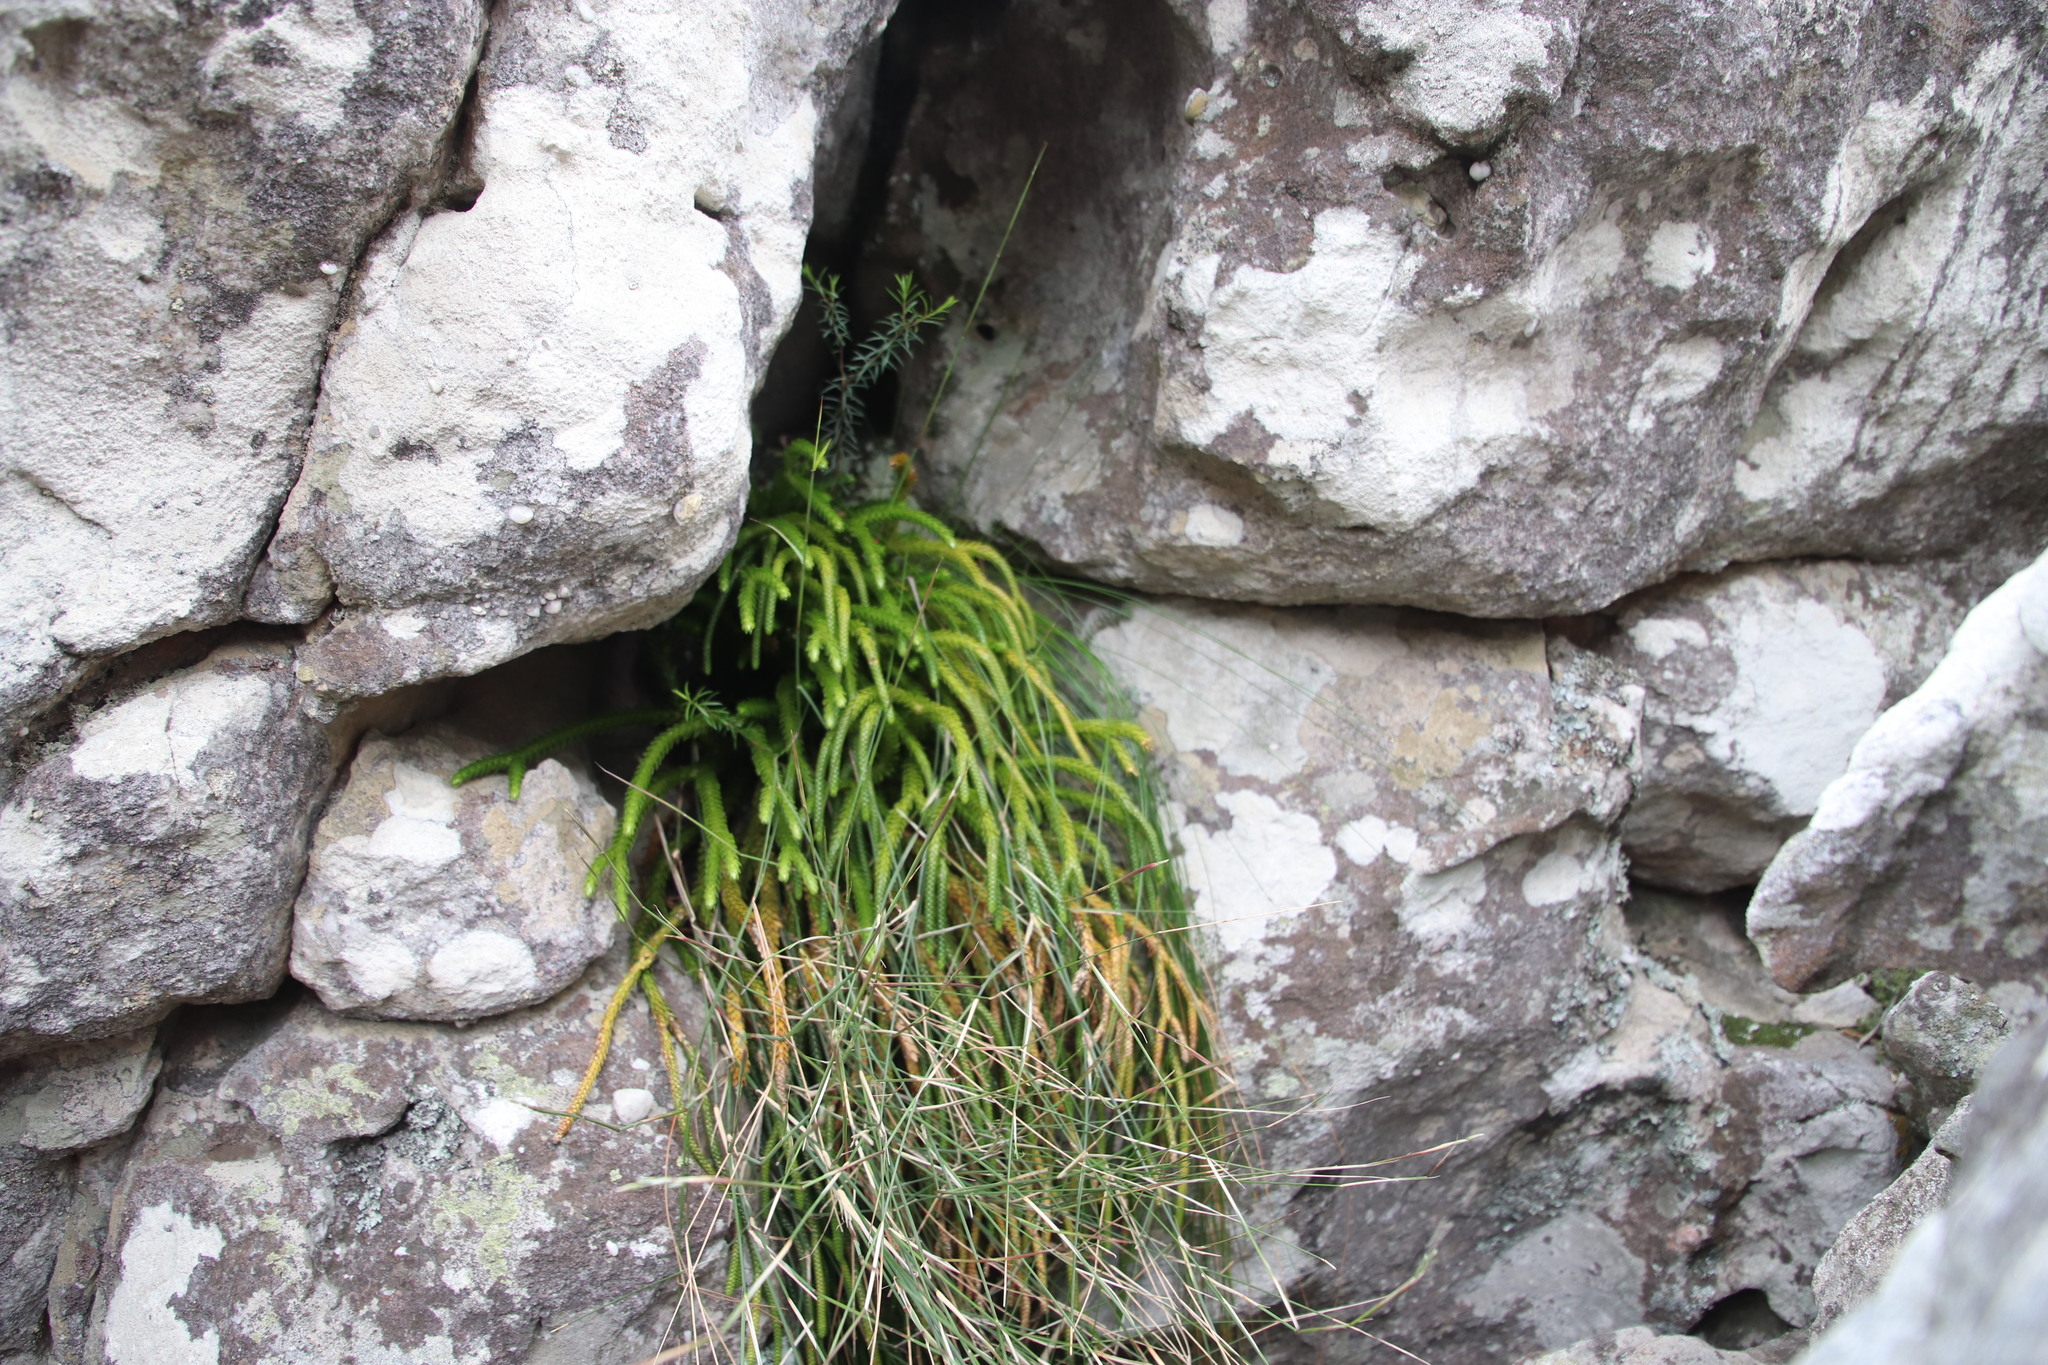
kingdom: Plantae
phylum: Tracheophyta
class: Lycopodiopsida
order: Lycopodiales
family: Lycopodiaceae
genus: Phlegmariurus
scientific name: Phlegmariurus gnidioides
